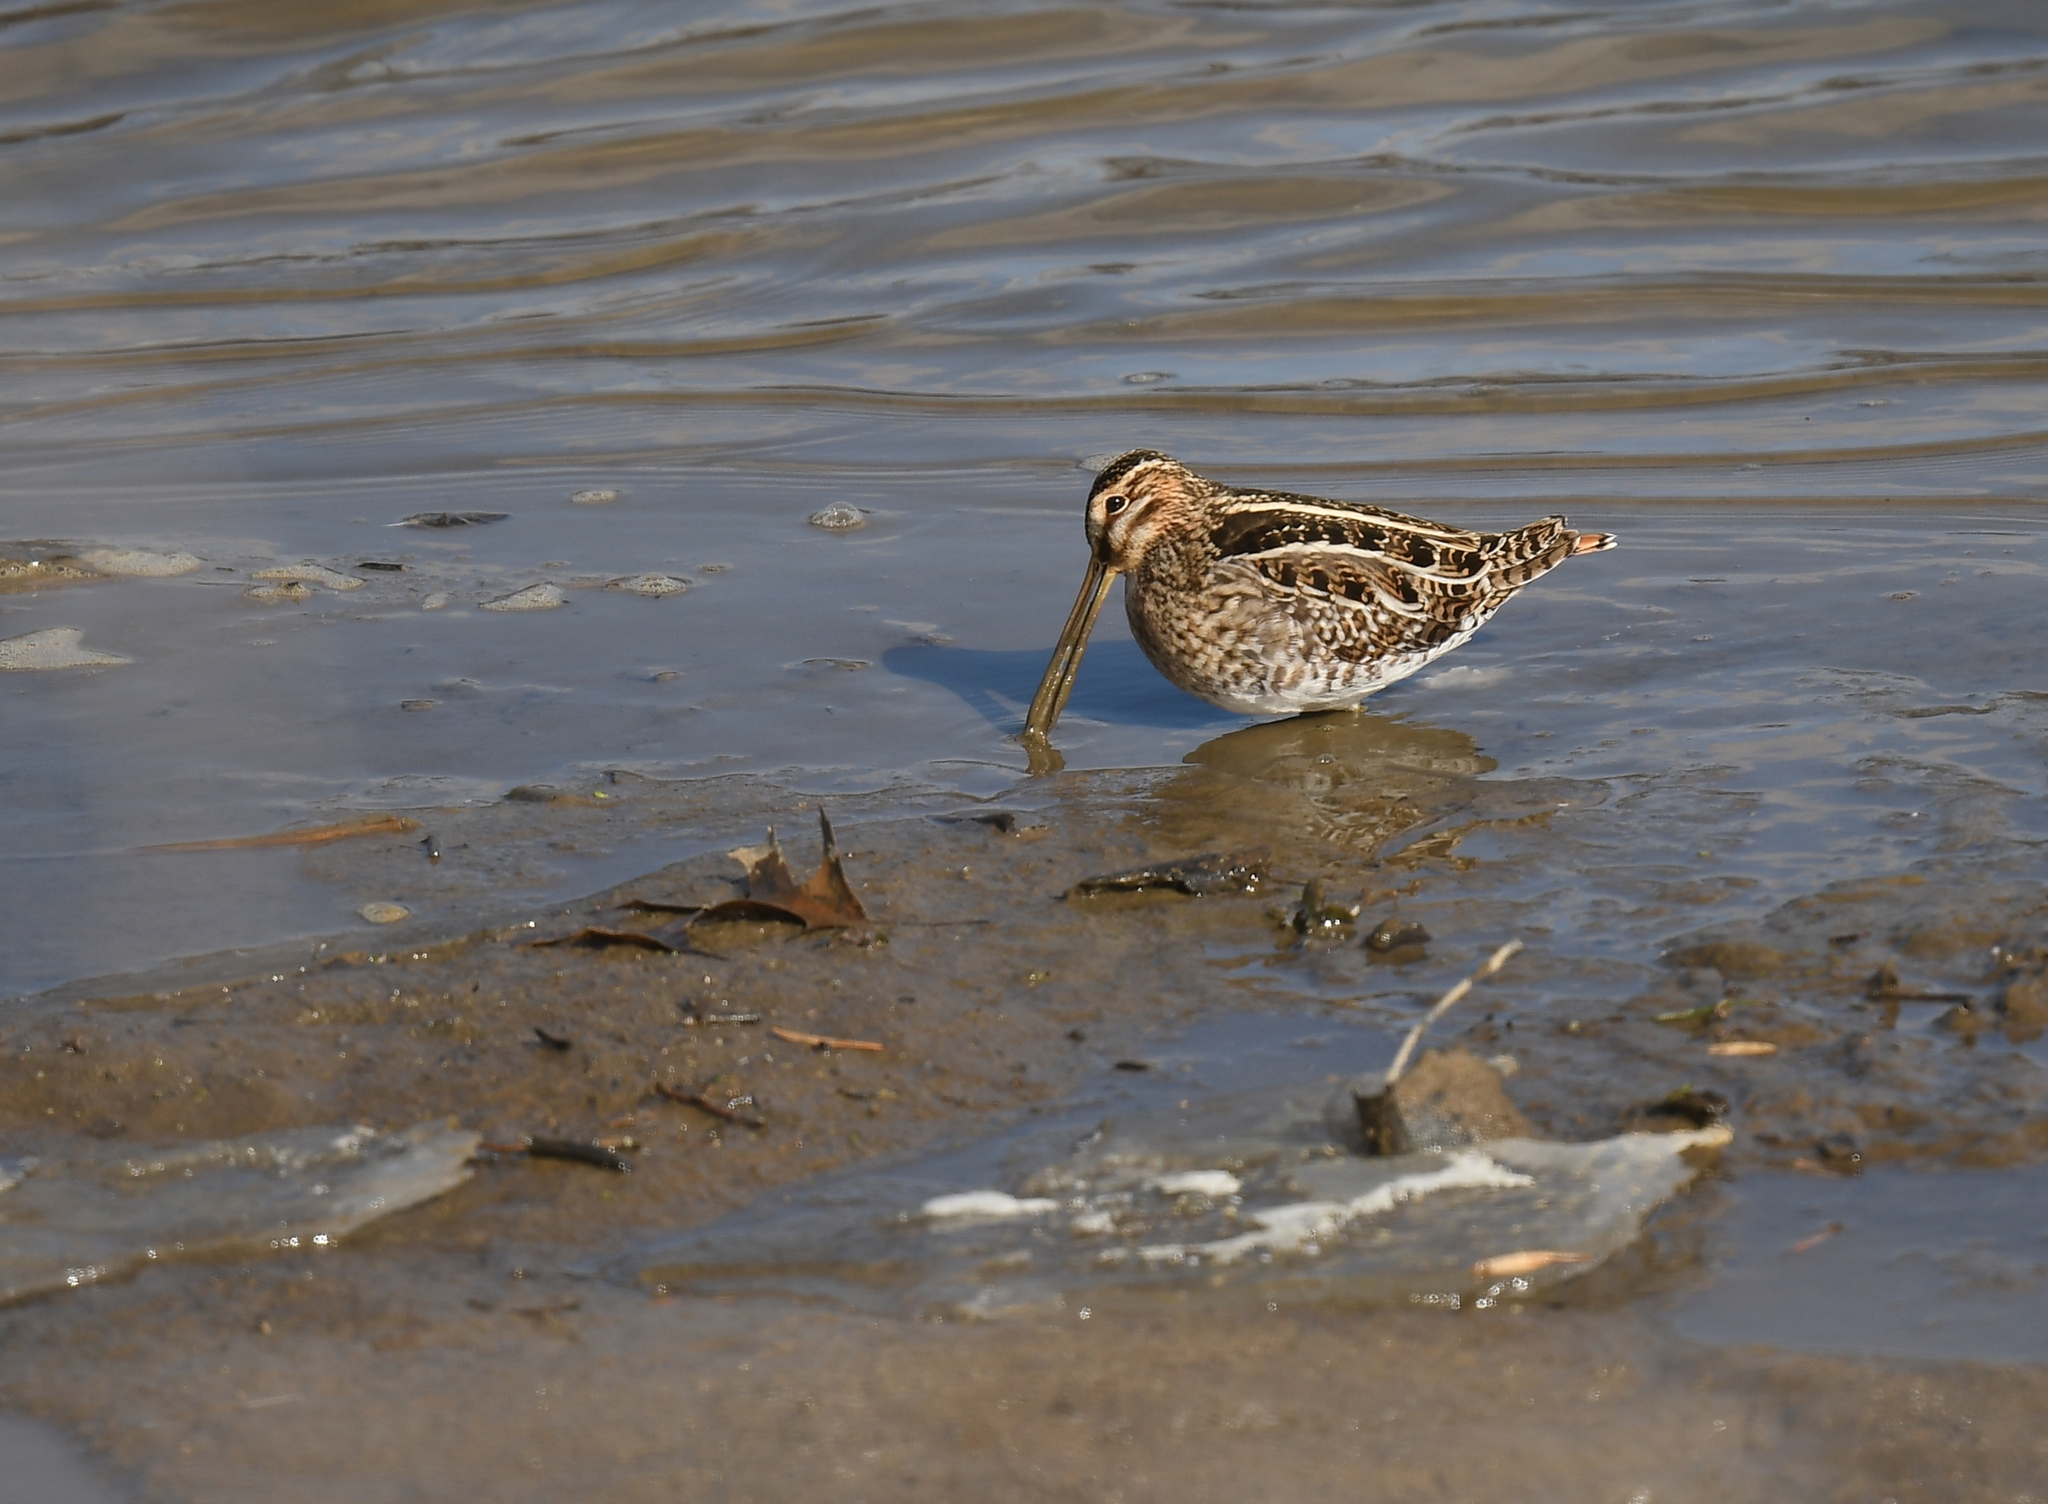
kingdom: Animalia
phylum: Chordata
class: Aves
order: Charadriiformes
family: Scolopacidae
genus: Gallinago
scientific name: Gallinago delicata
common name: Wilson's snipe
